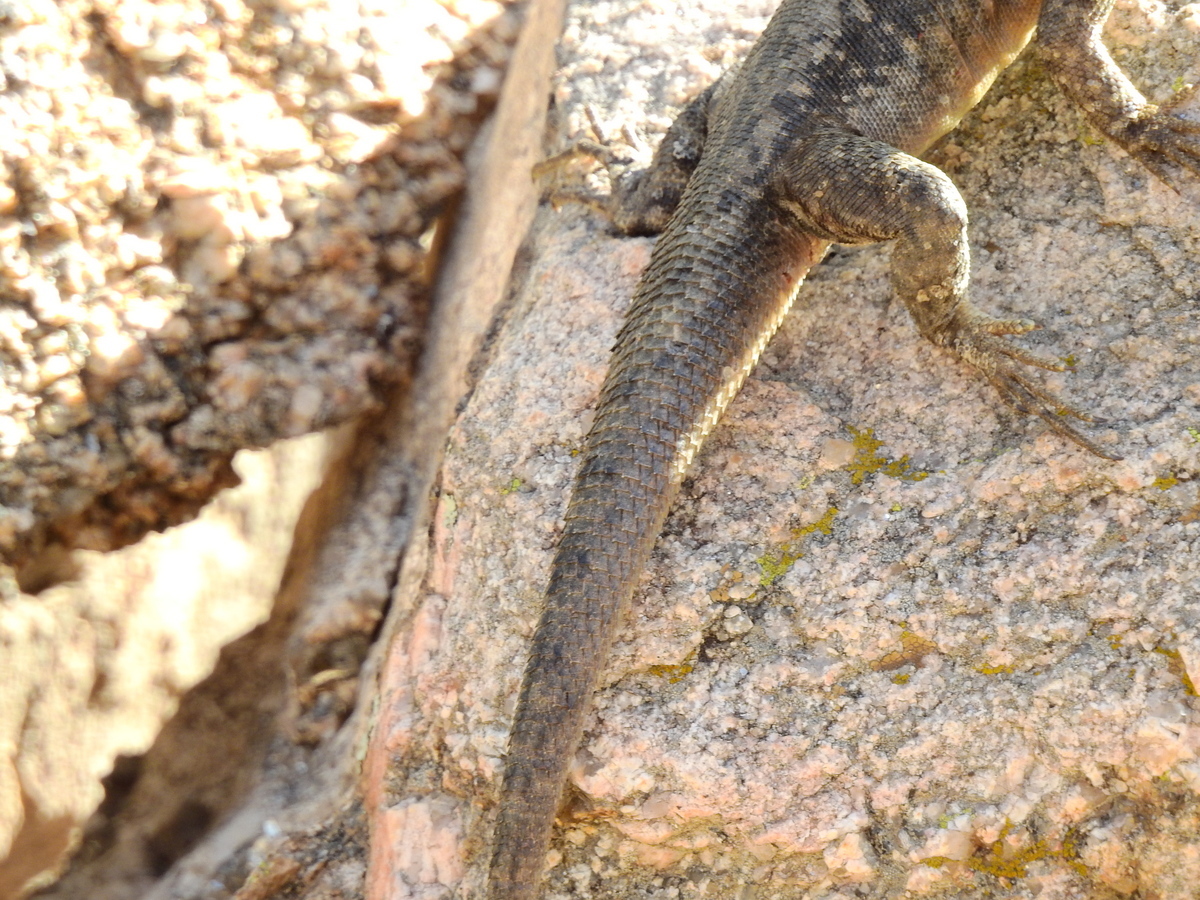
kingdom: Animalia
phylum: Chordata
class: Squamata
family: Tropiduridae
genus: Tropidurus
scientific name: Tropidurus etheridgei
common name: Etheridge's lava lizard
